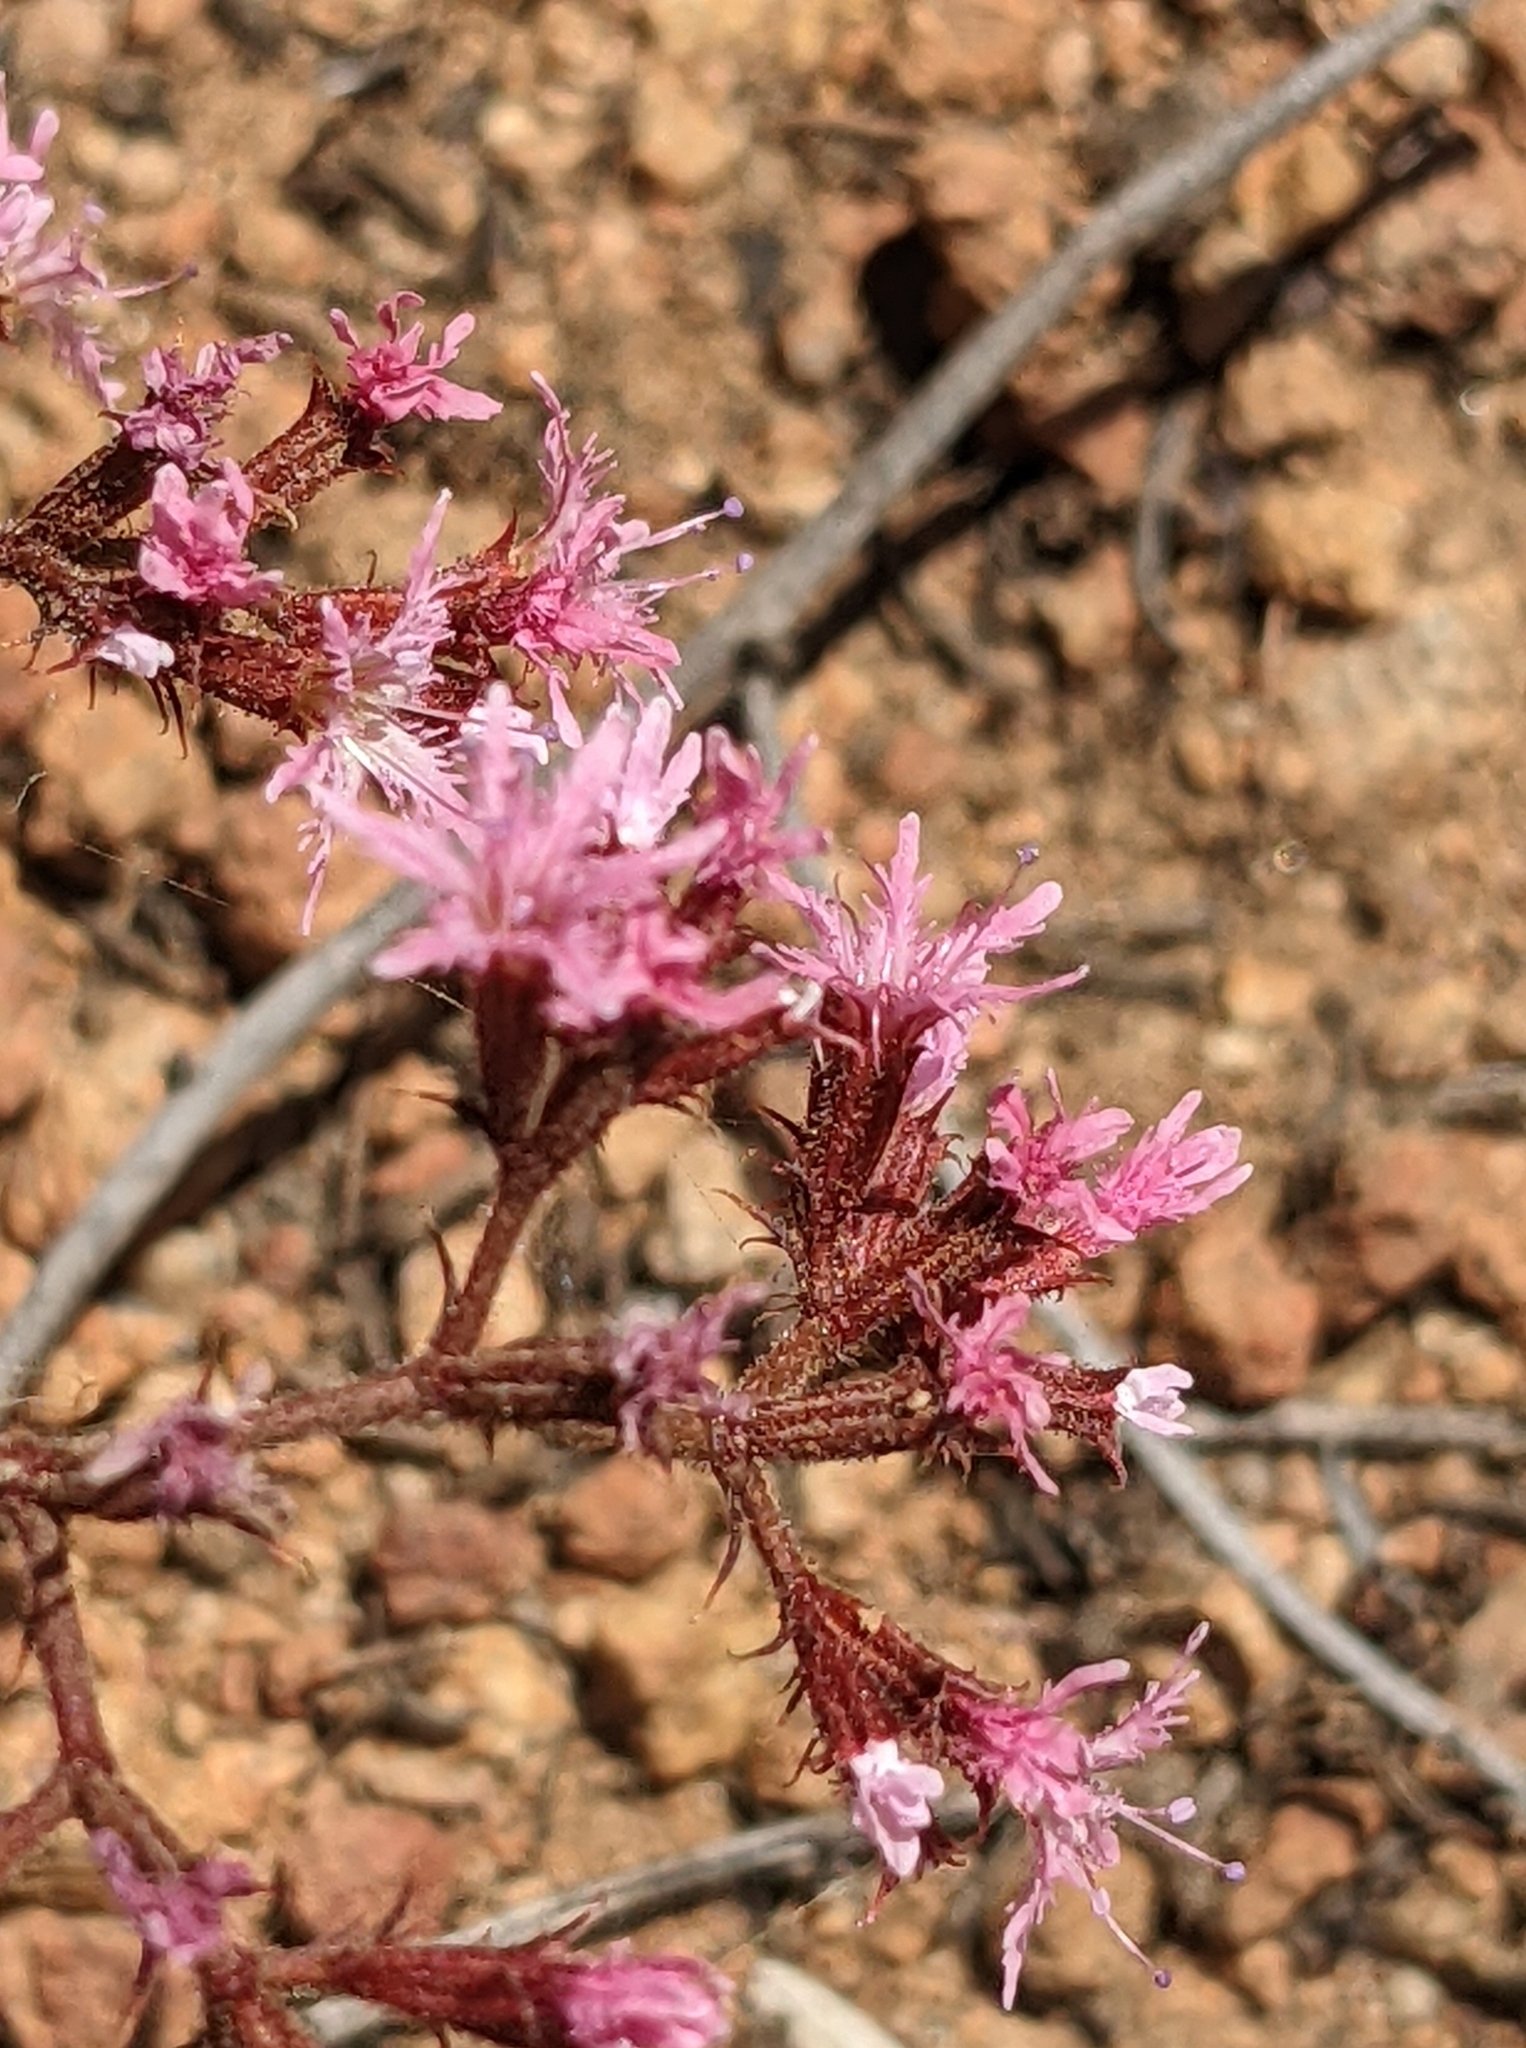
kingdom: Plantae
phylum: Tracheophyta
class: Magnoliopsida
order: Caryophyllales
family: Polygonaceae
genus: Chorizanthe
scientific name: Chorizanthe fimbriata
